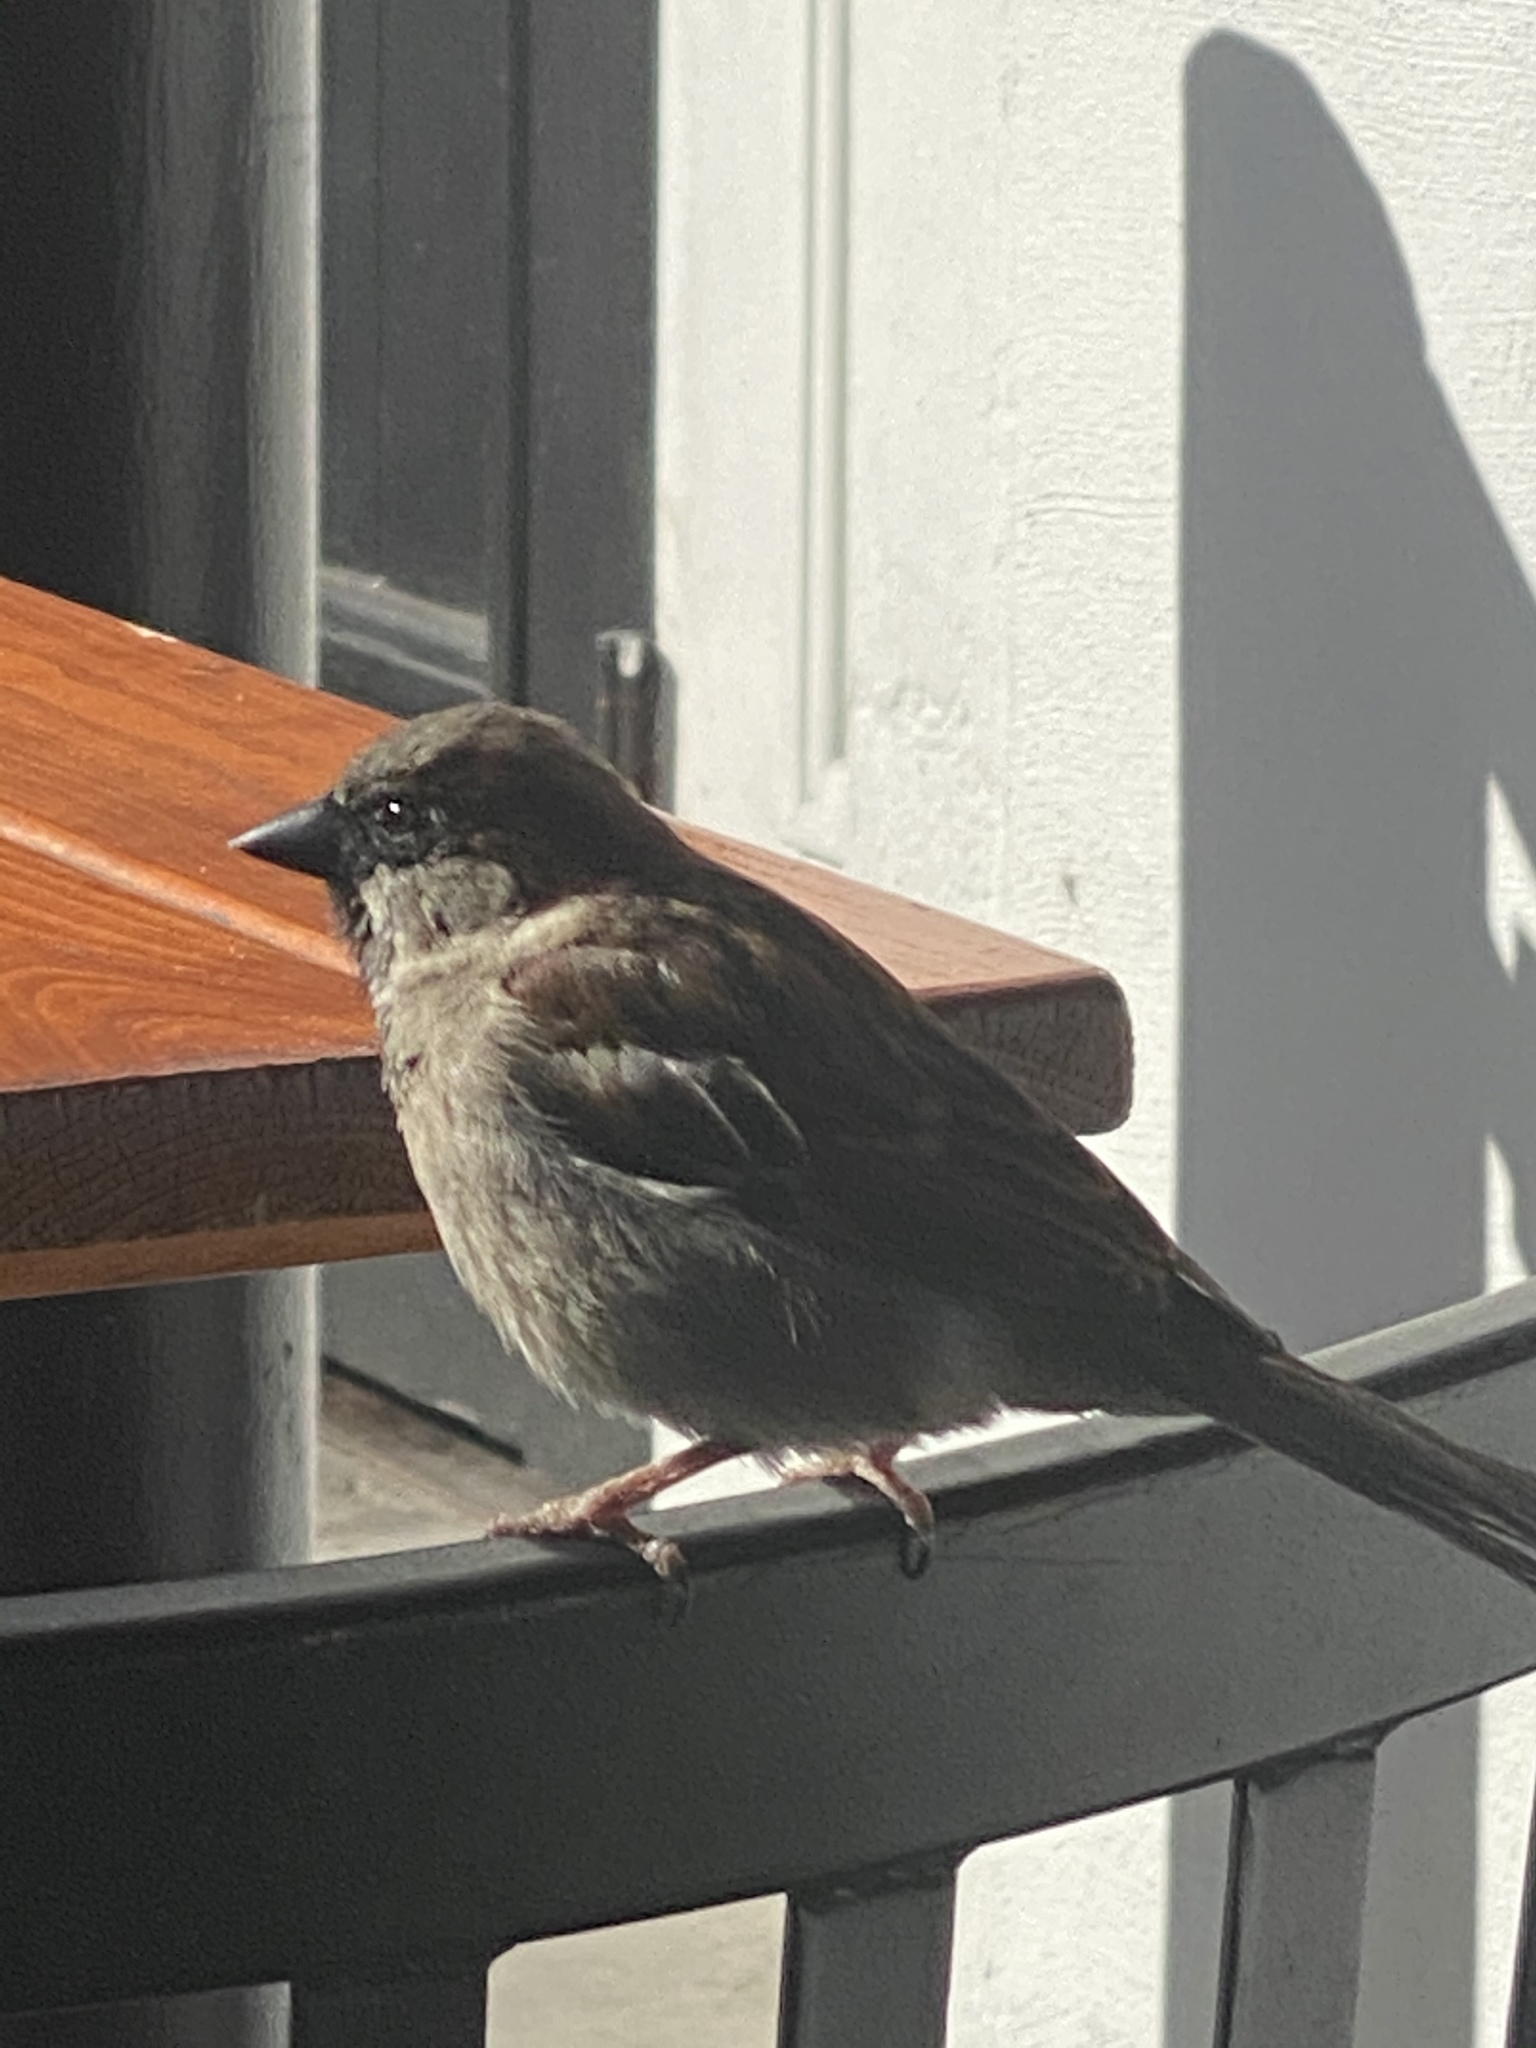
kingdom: Animalia
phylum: Chordata
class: Aves
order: Passeriformes
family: Passeridae
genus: Passer
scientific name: Passer domesticus
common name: House sparrow
